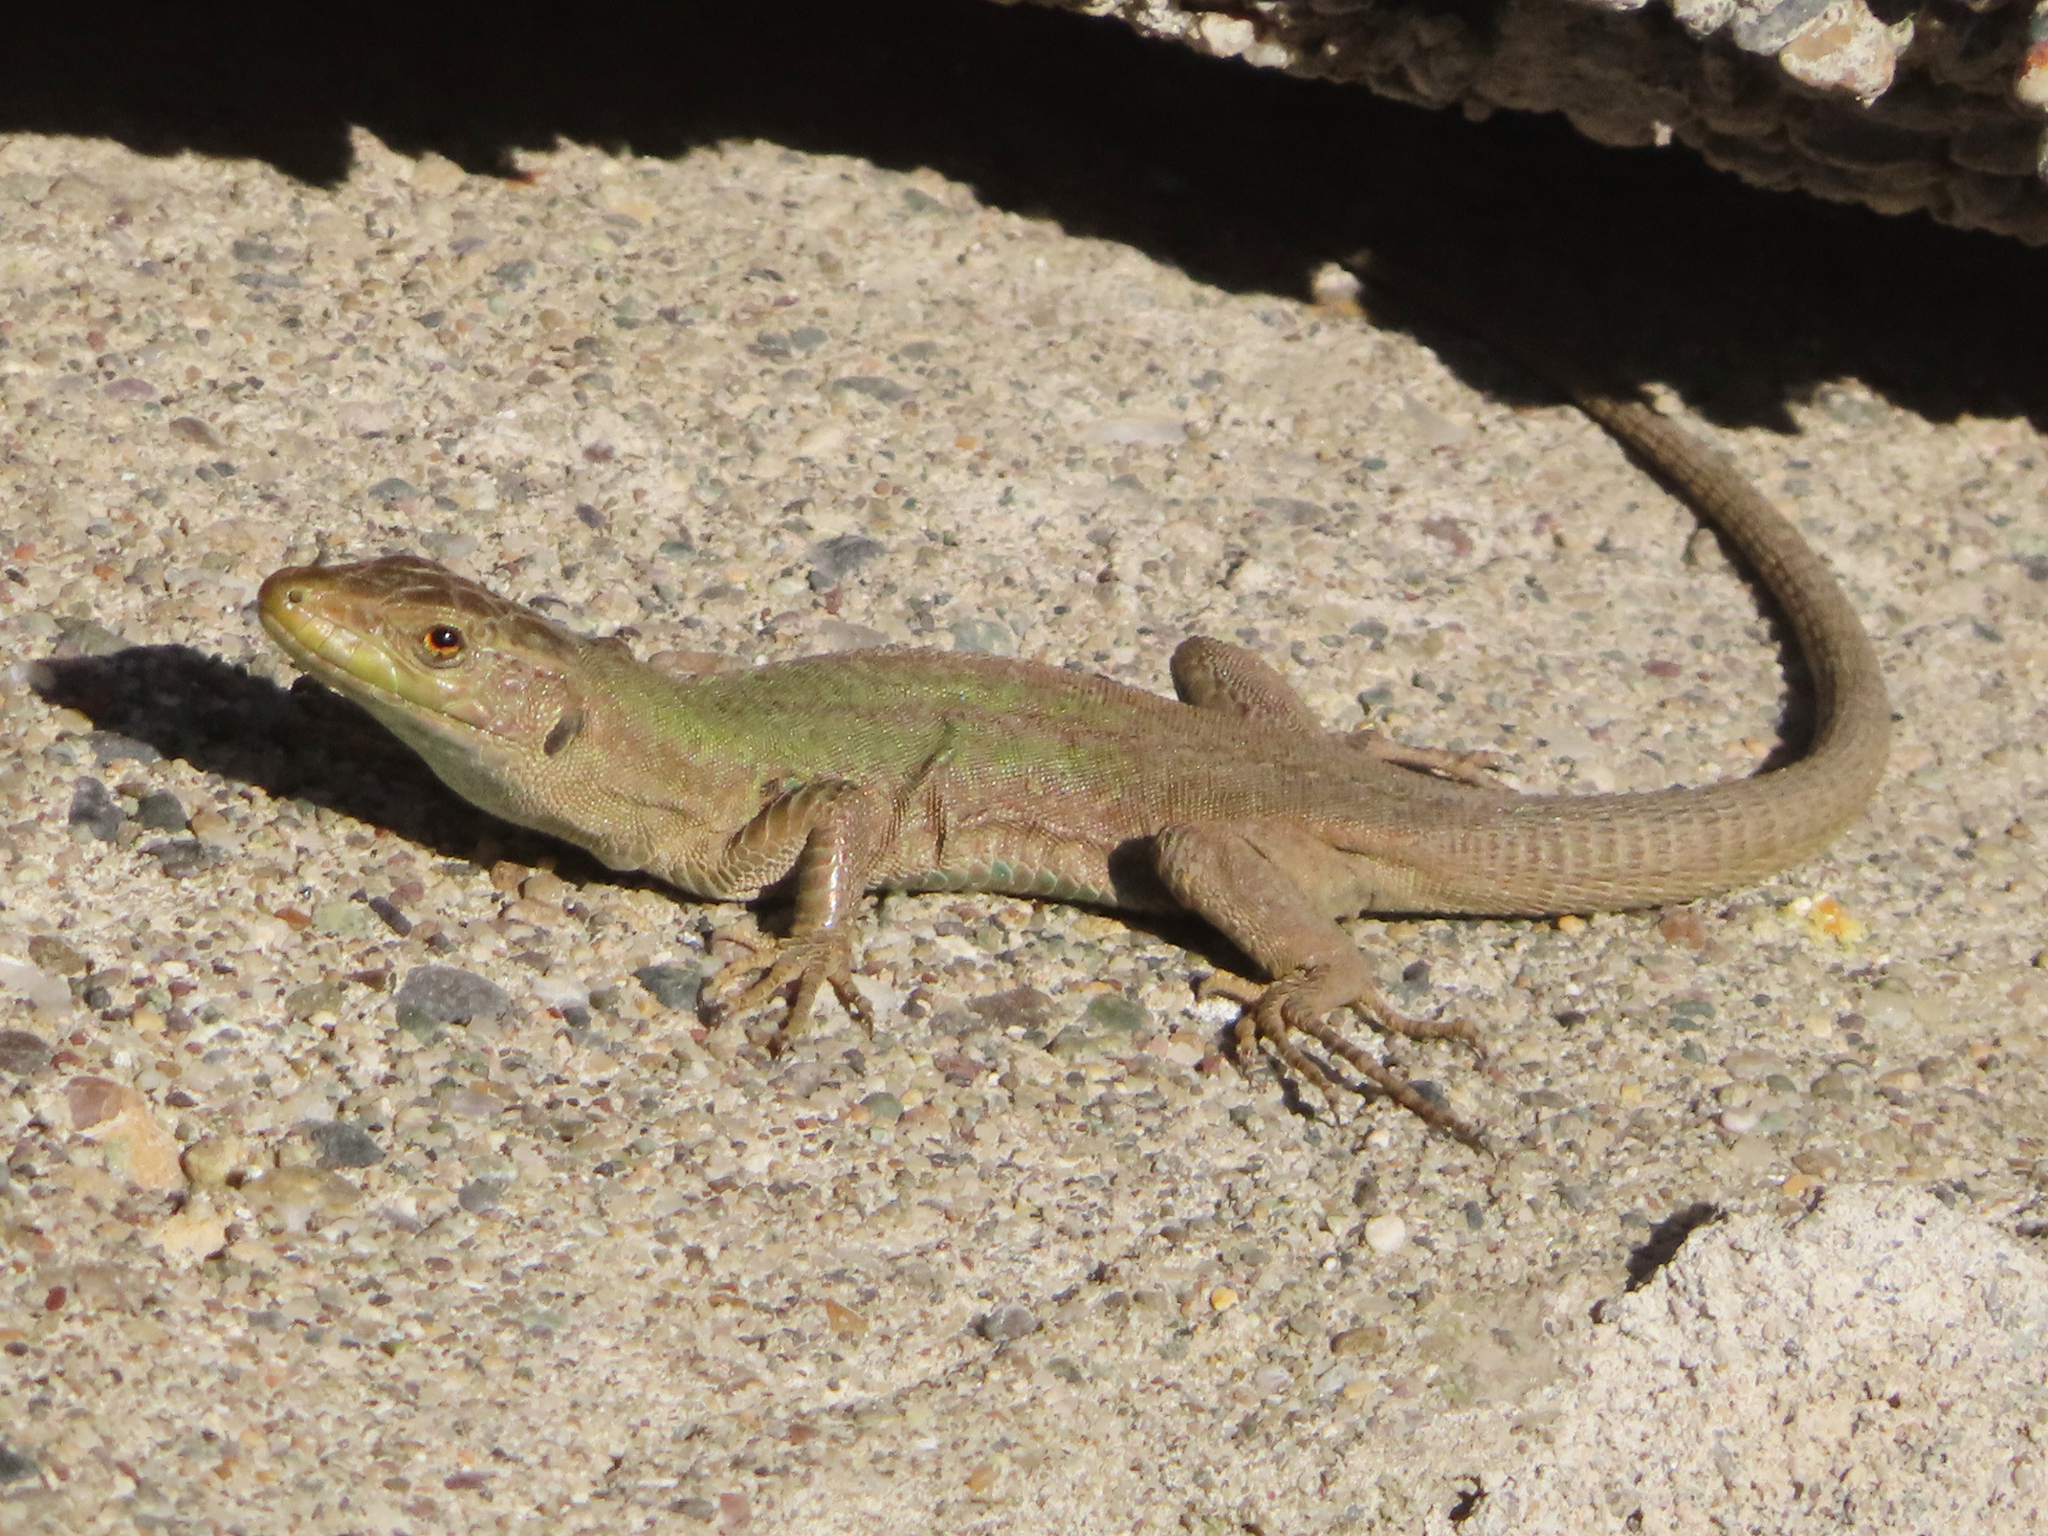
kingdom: Animalia
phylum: Chordata
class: Squamata
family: Lacertidae
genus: Podarcis
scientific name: Podarcis siculus
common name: Italian wall lizard
